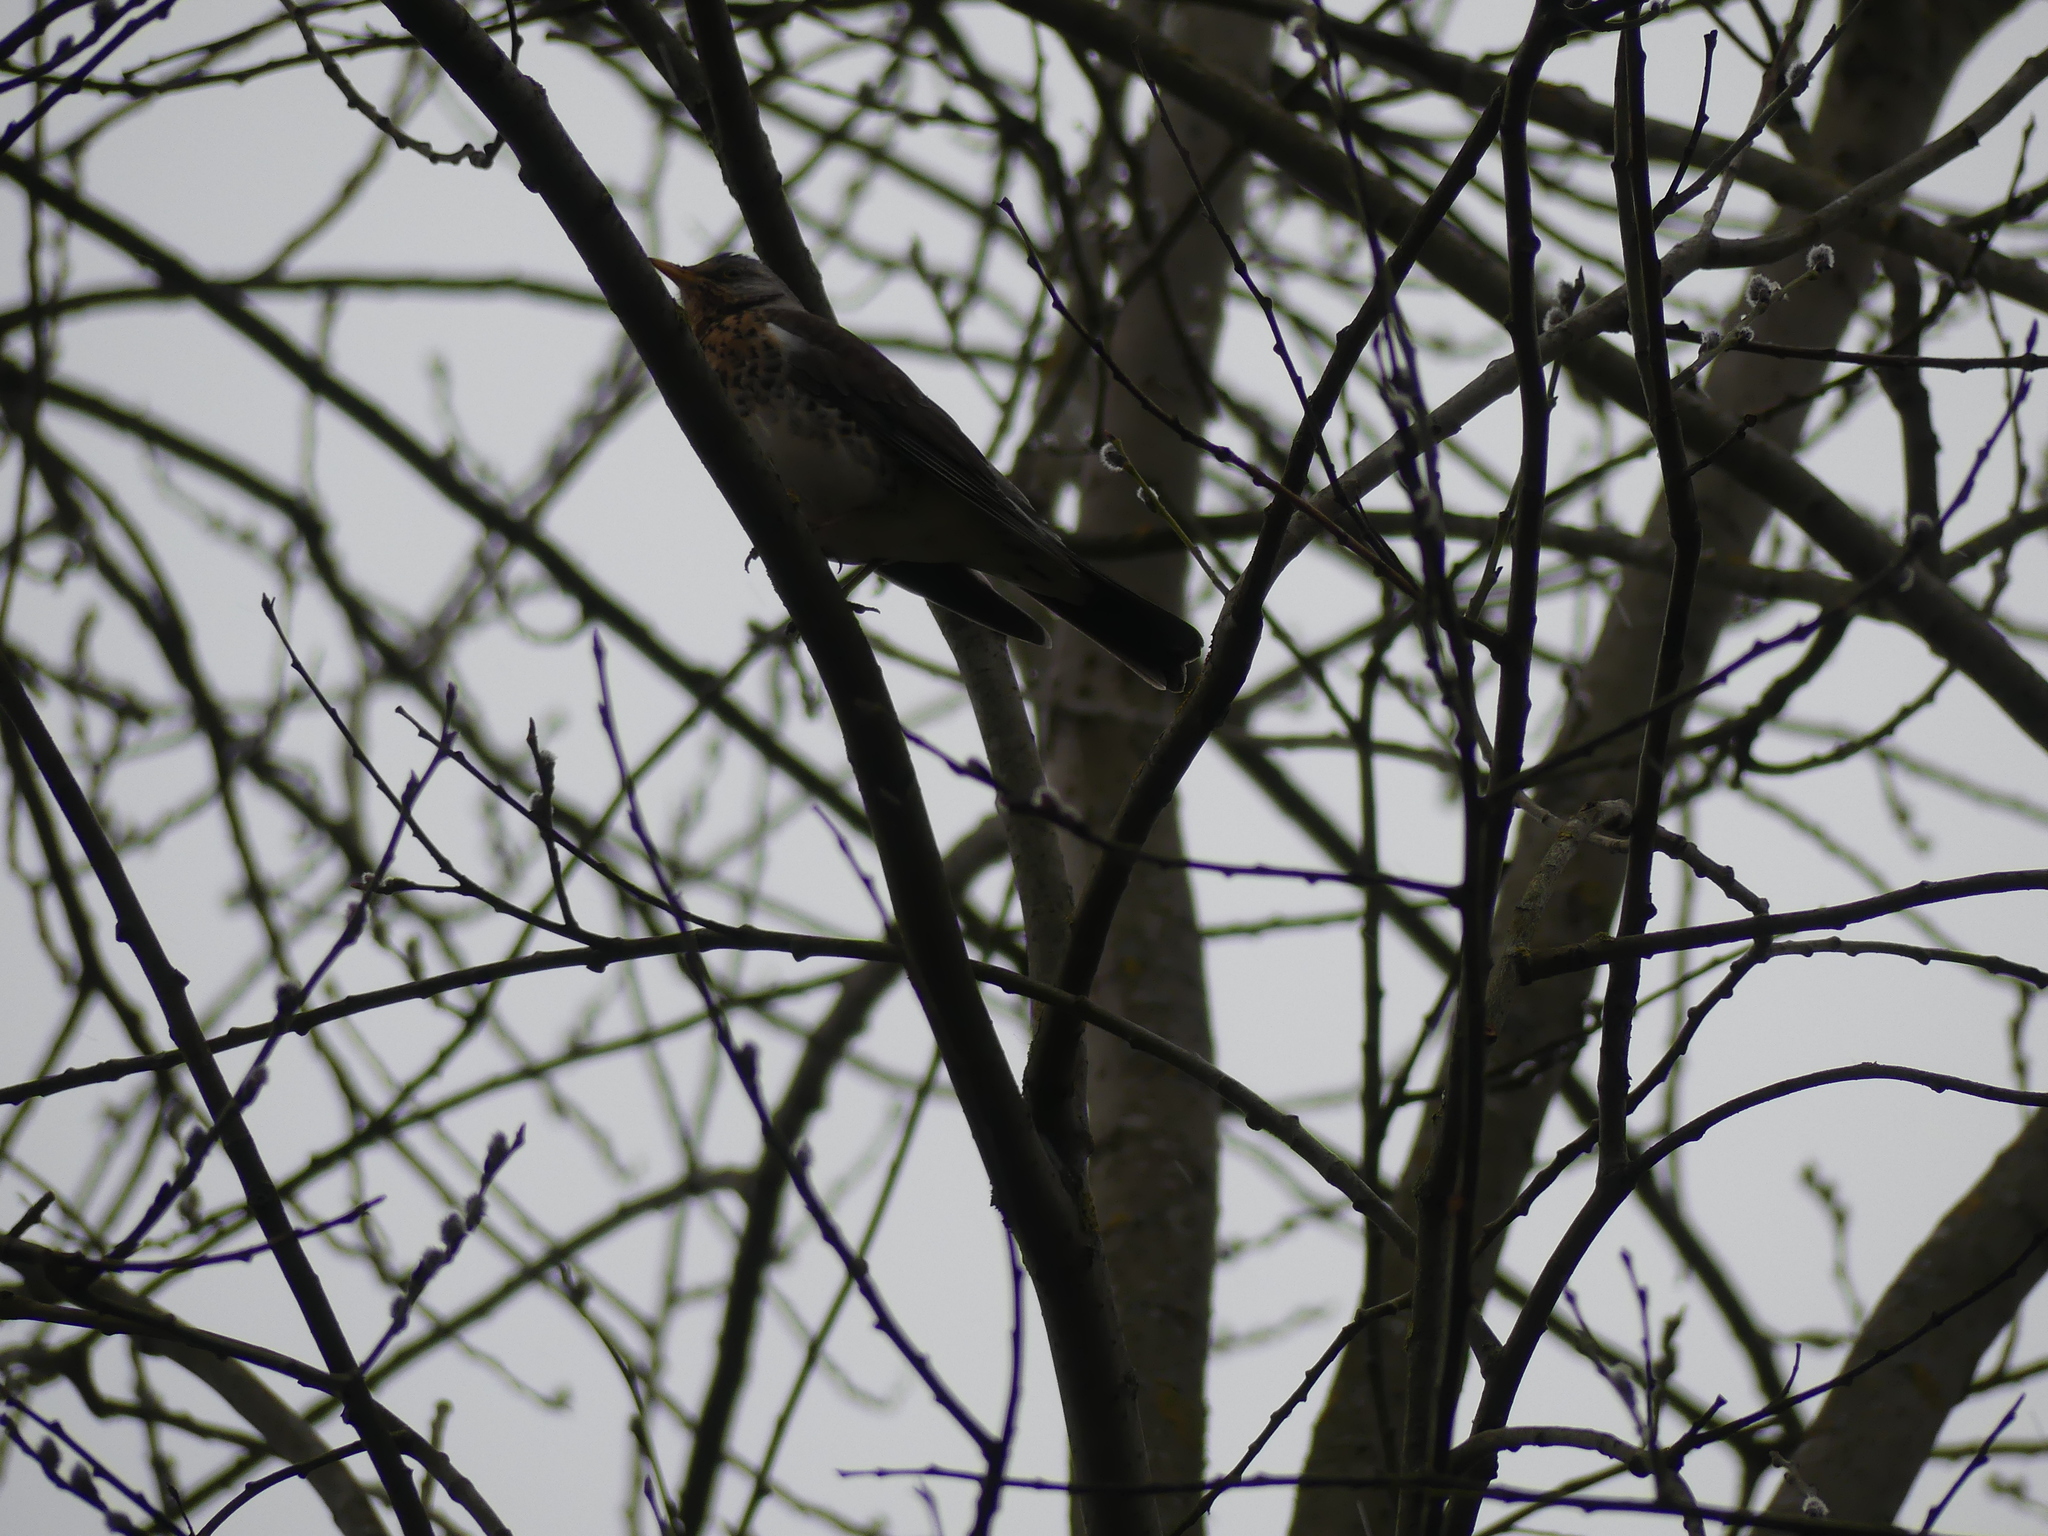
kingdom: Animalia
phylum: Chordata
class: Aves
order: Passeriformes
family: Turdidae
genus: Turdus
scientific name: Turdus pilaris
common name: Fieldfare
